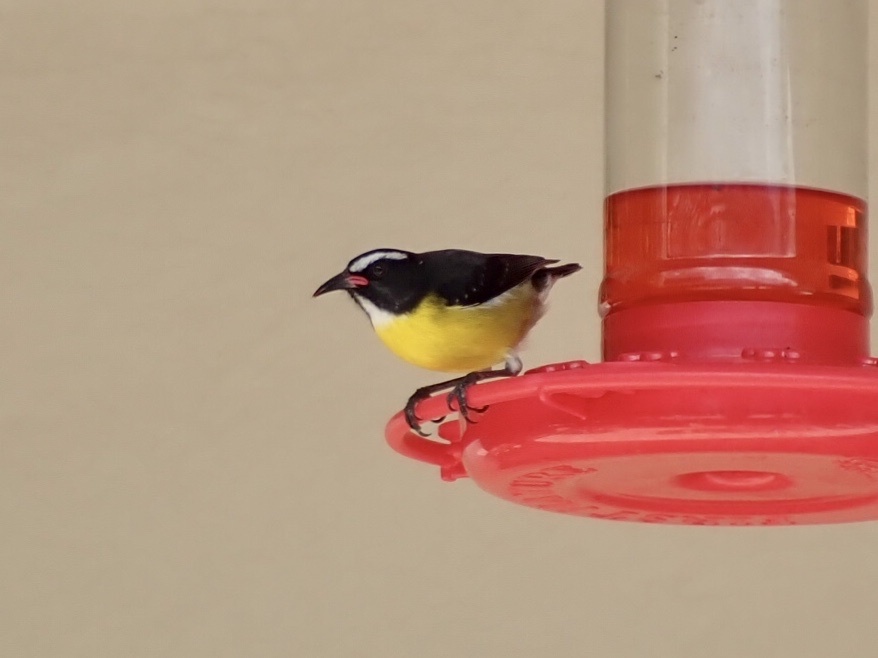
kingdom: Animalia
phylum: Chordata
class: Aves
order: Passeriformes
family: Thraupidae
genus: Coereba
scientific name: Coereba flaveola
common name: Bananaquit
